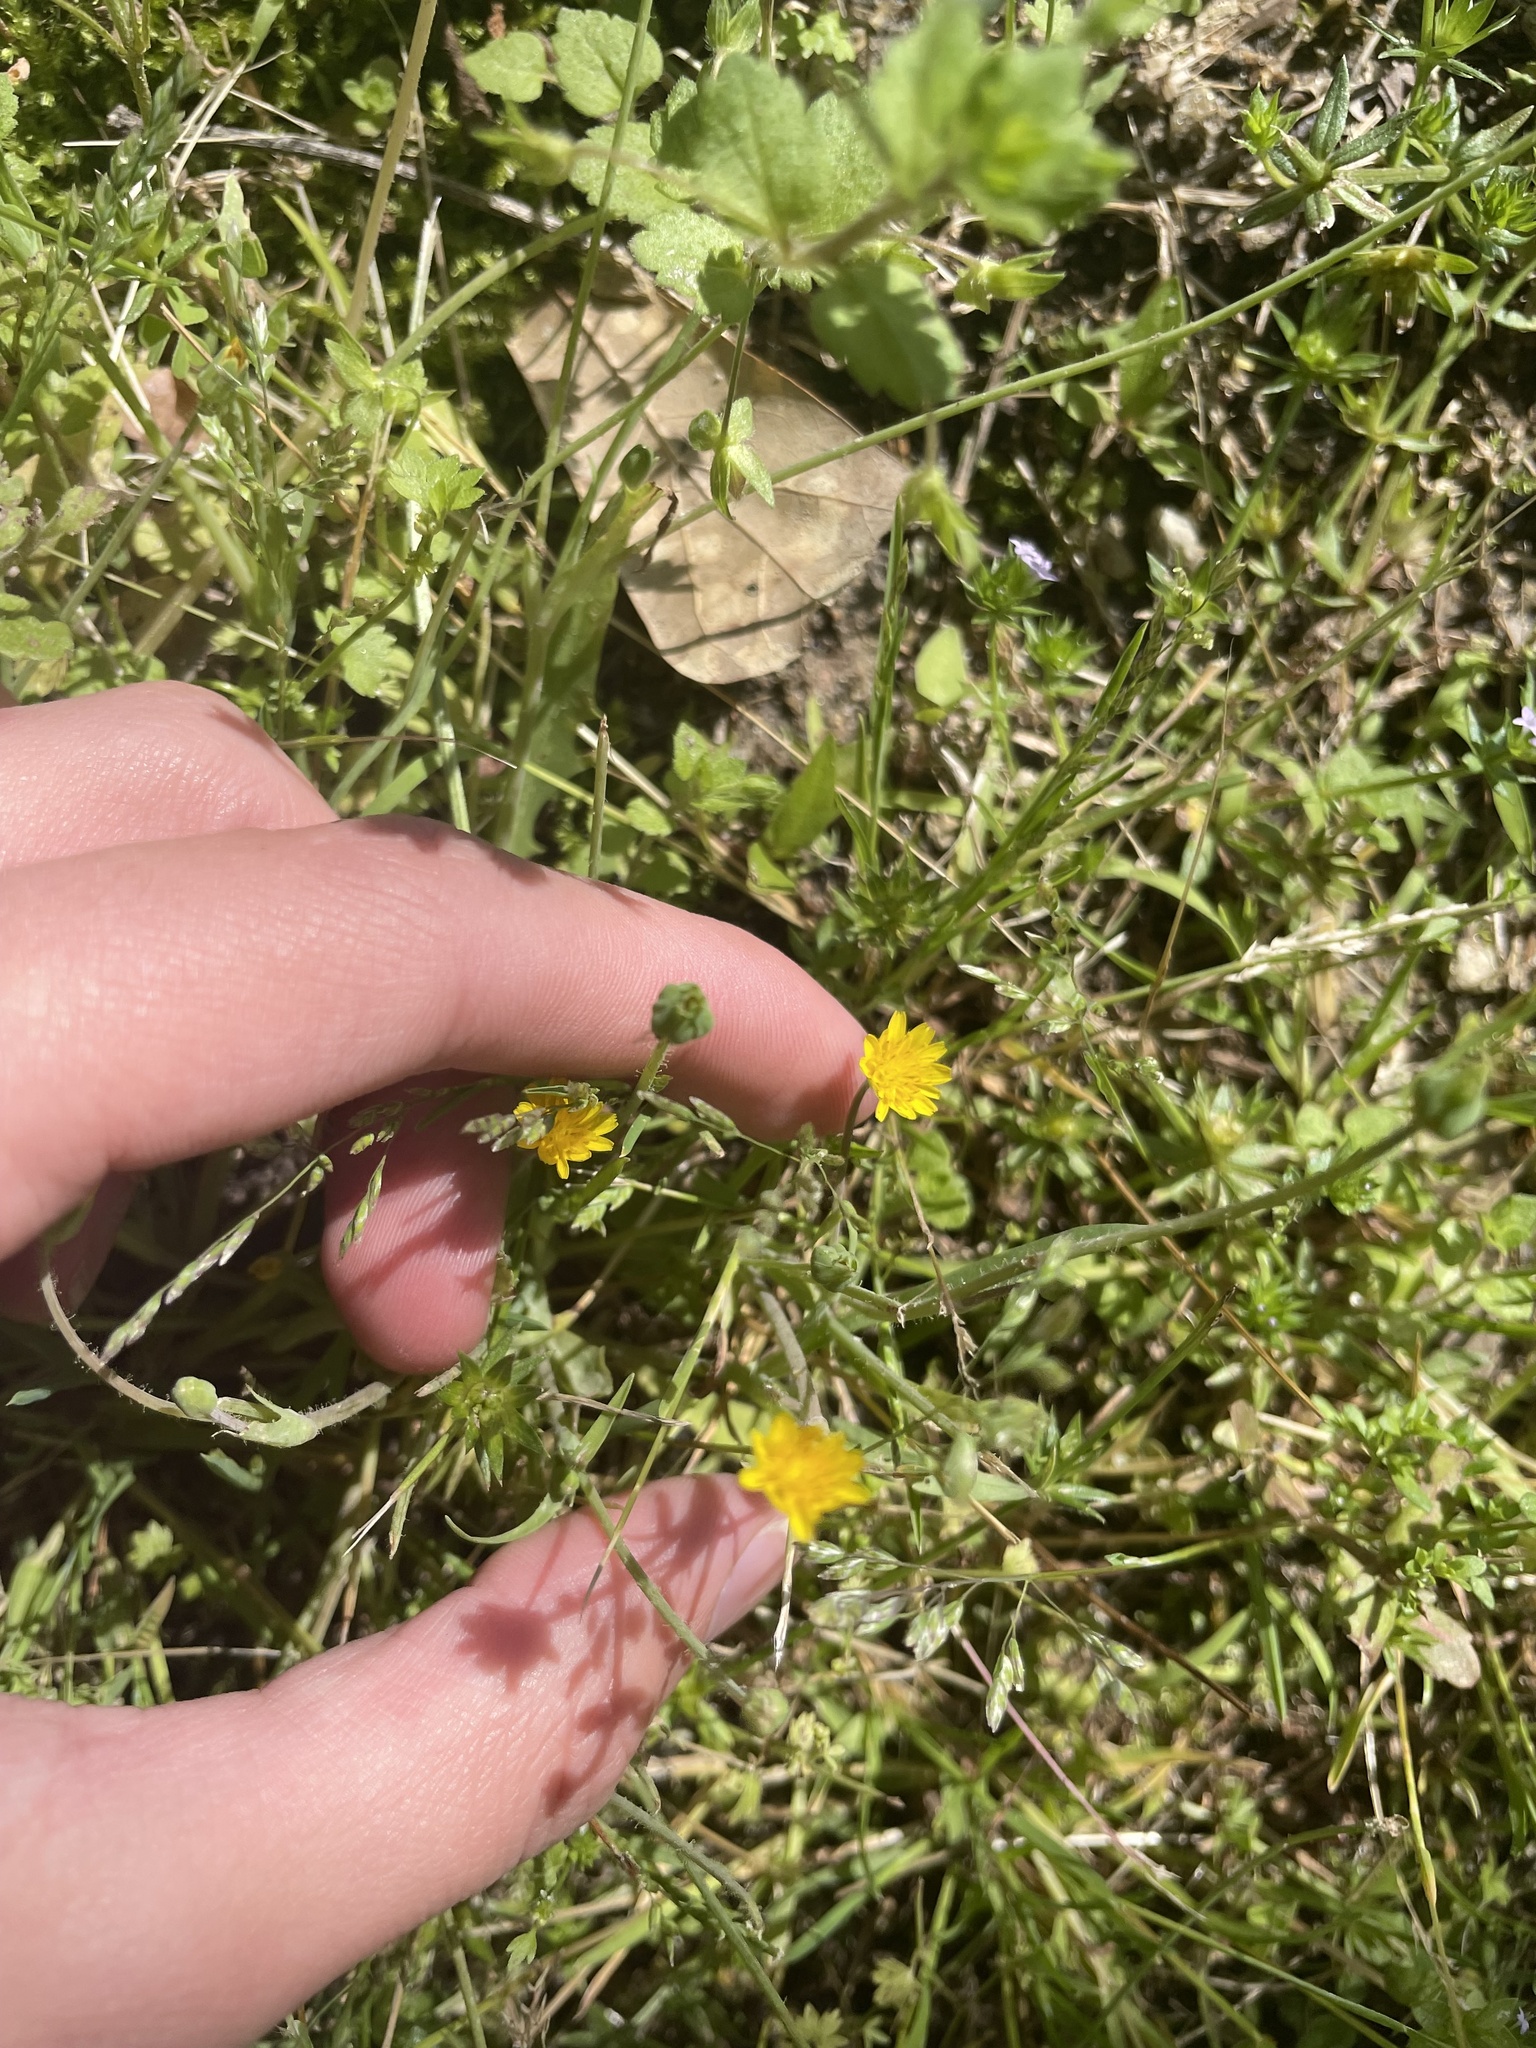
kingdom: Plantae
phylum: Tracheophyta
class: Magnoliopsida
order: Asterales
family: Asteraceae
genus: Krigia
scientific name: Krigia cespitosa
